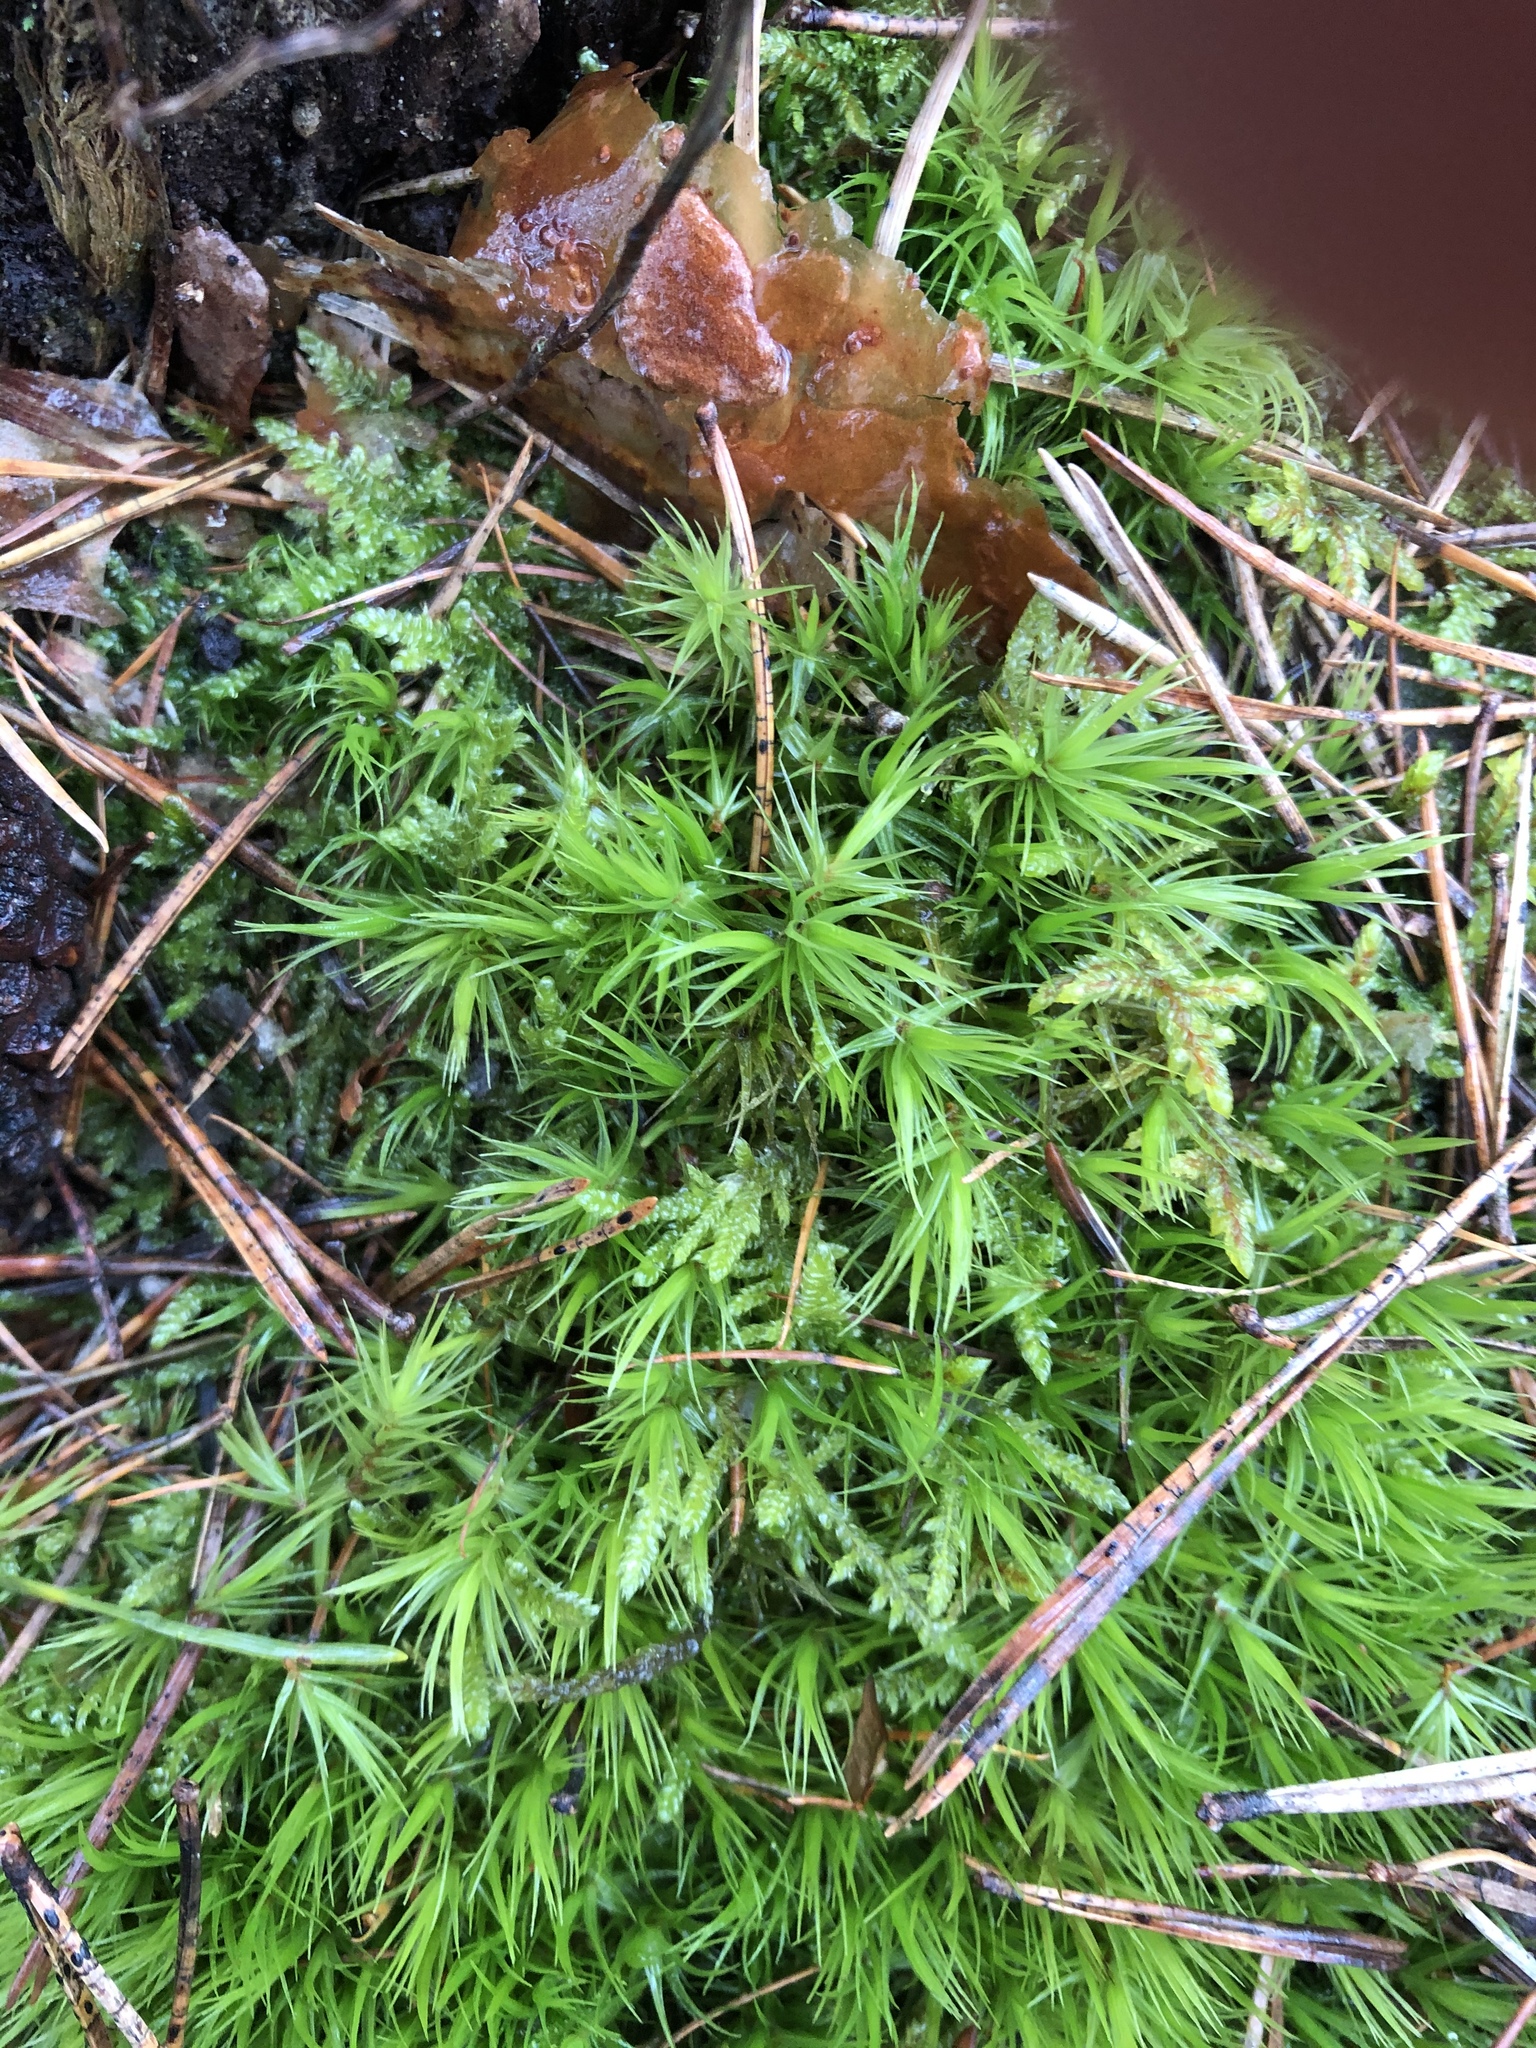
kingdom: Plantae
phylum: Bryophyta
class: Bryopsida
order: Dicranales
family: Dicranaceae
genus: Dicranum
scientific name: Dicranum scoparium
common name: Broom fork-moss
